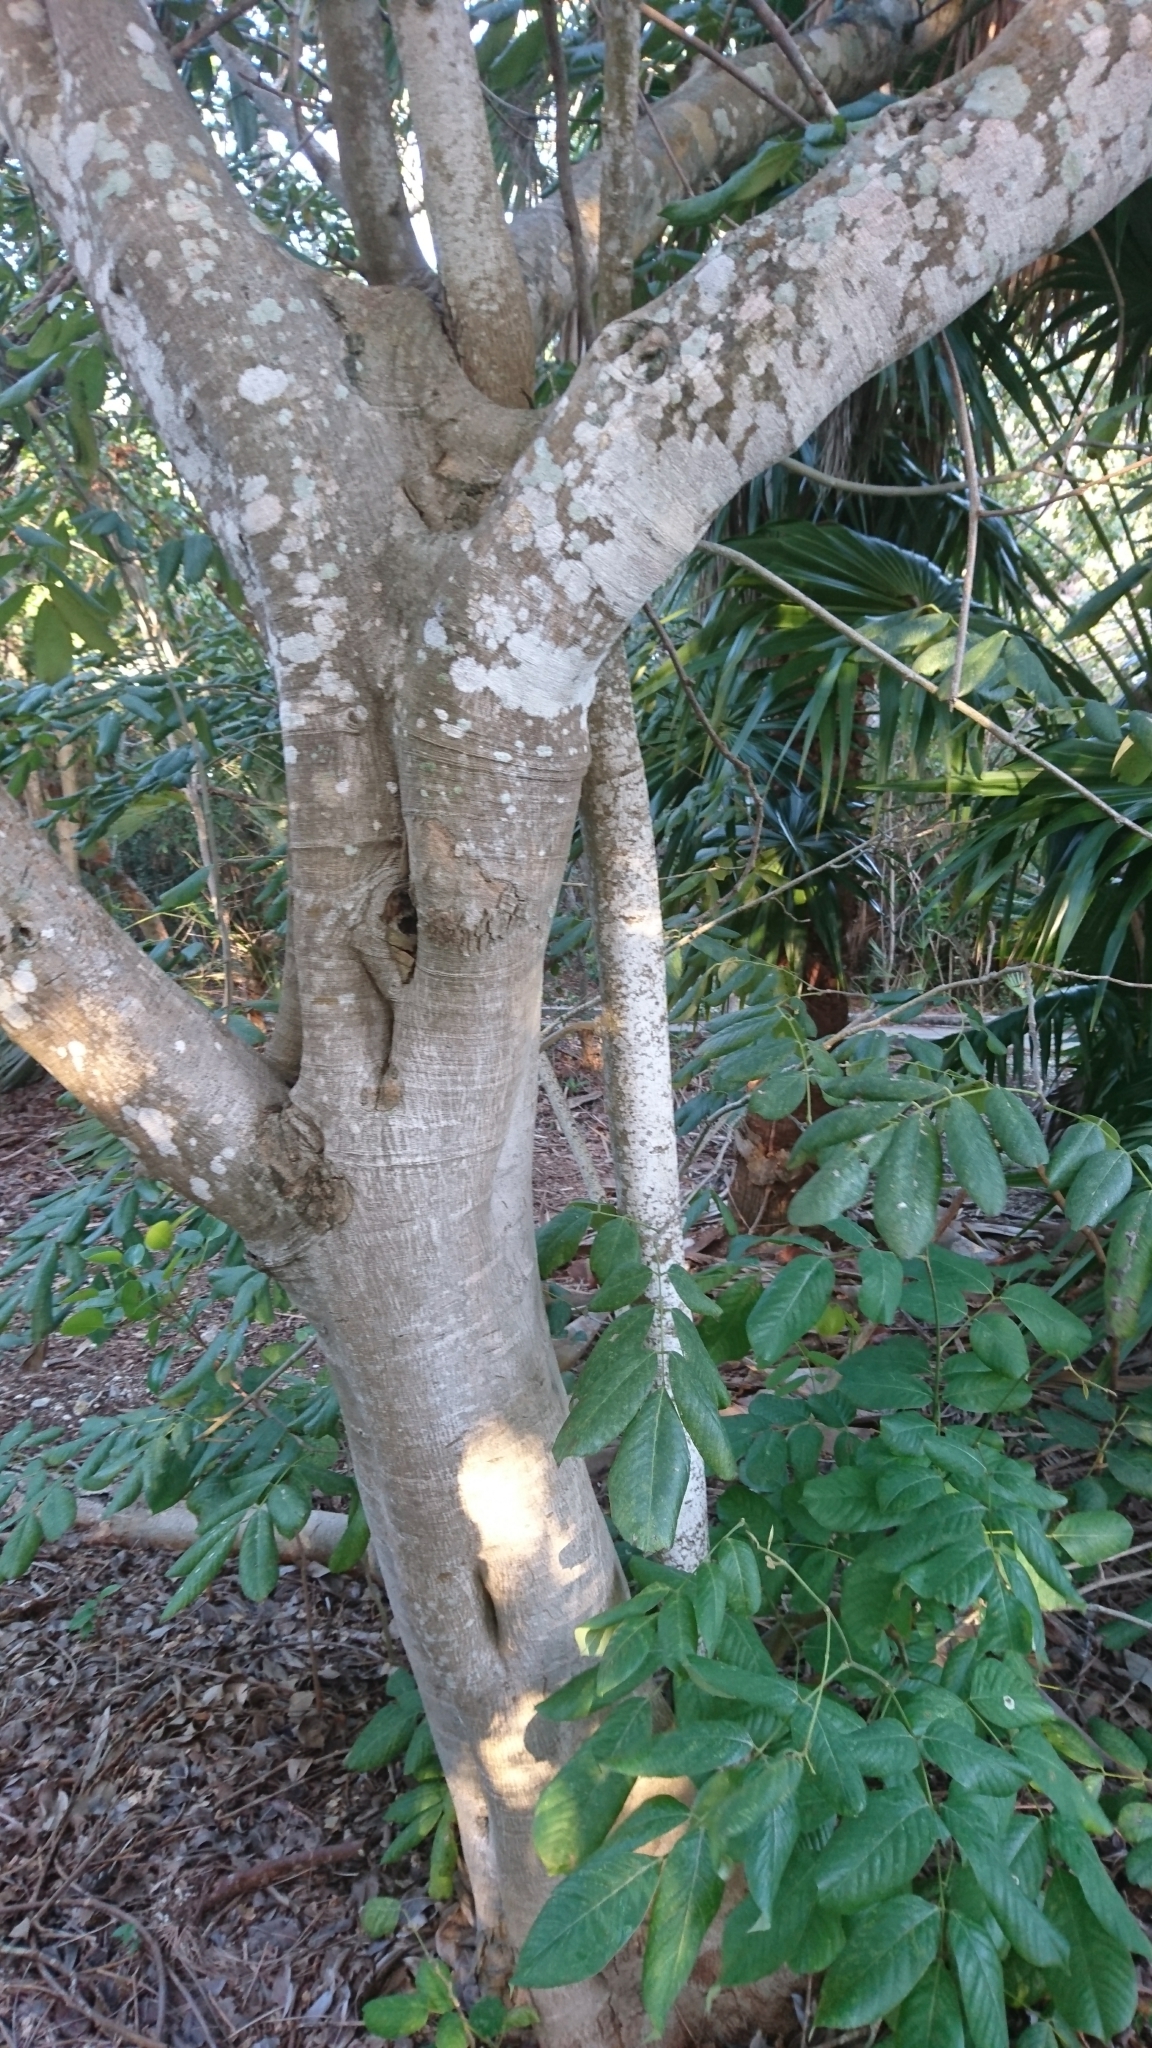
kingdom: Plantae
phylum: Tracheophyta
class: Magnoliopsida
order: Fabales
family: Fabaceae
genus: Piscidia
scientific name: Piscidia piscipula
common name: Florida fishpoison tree
